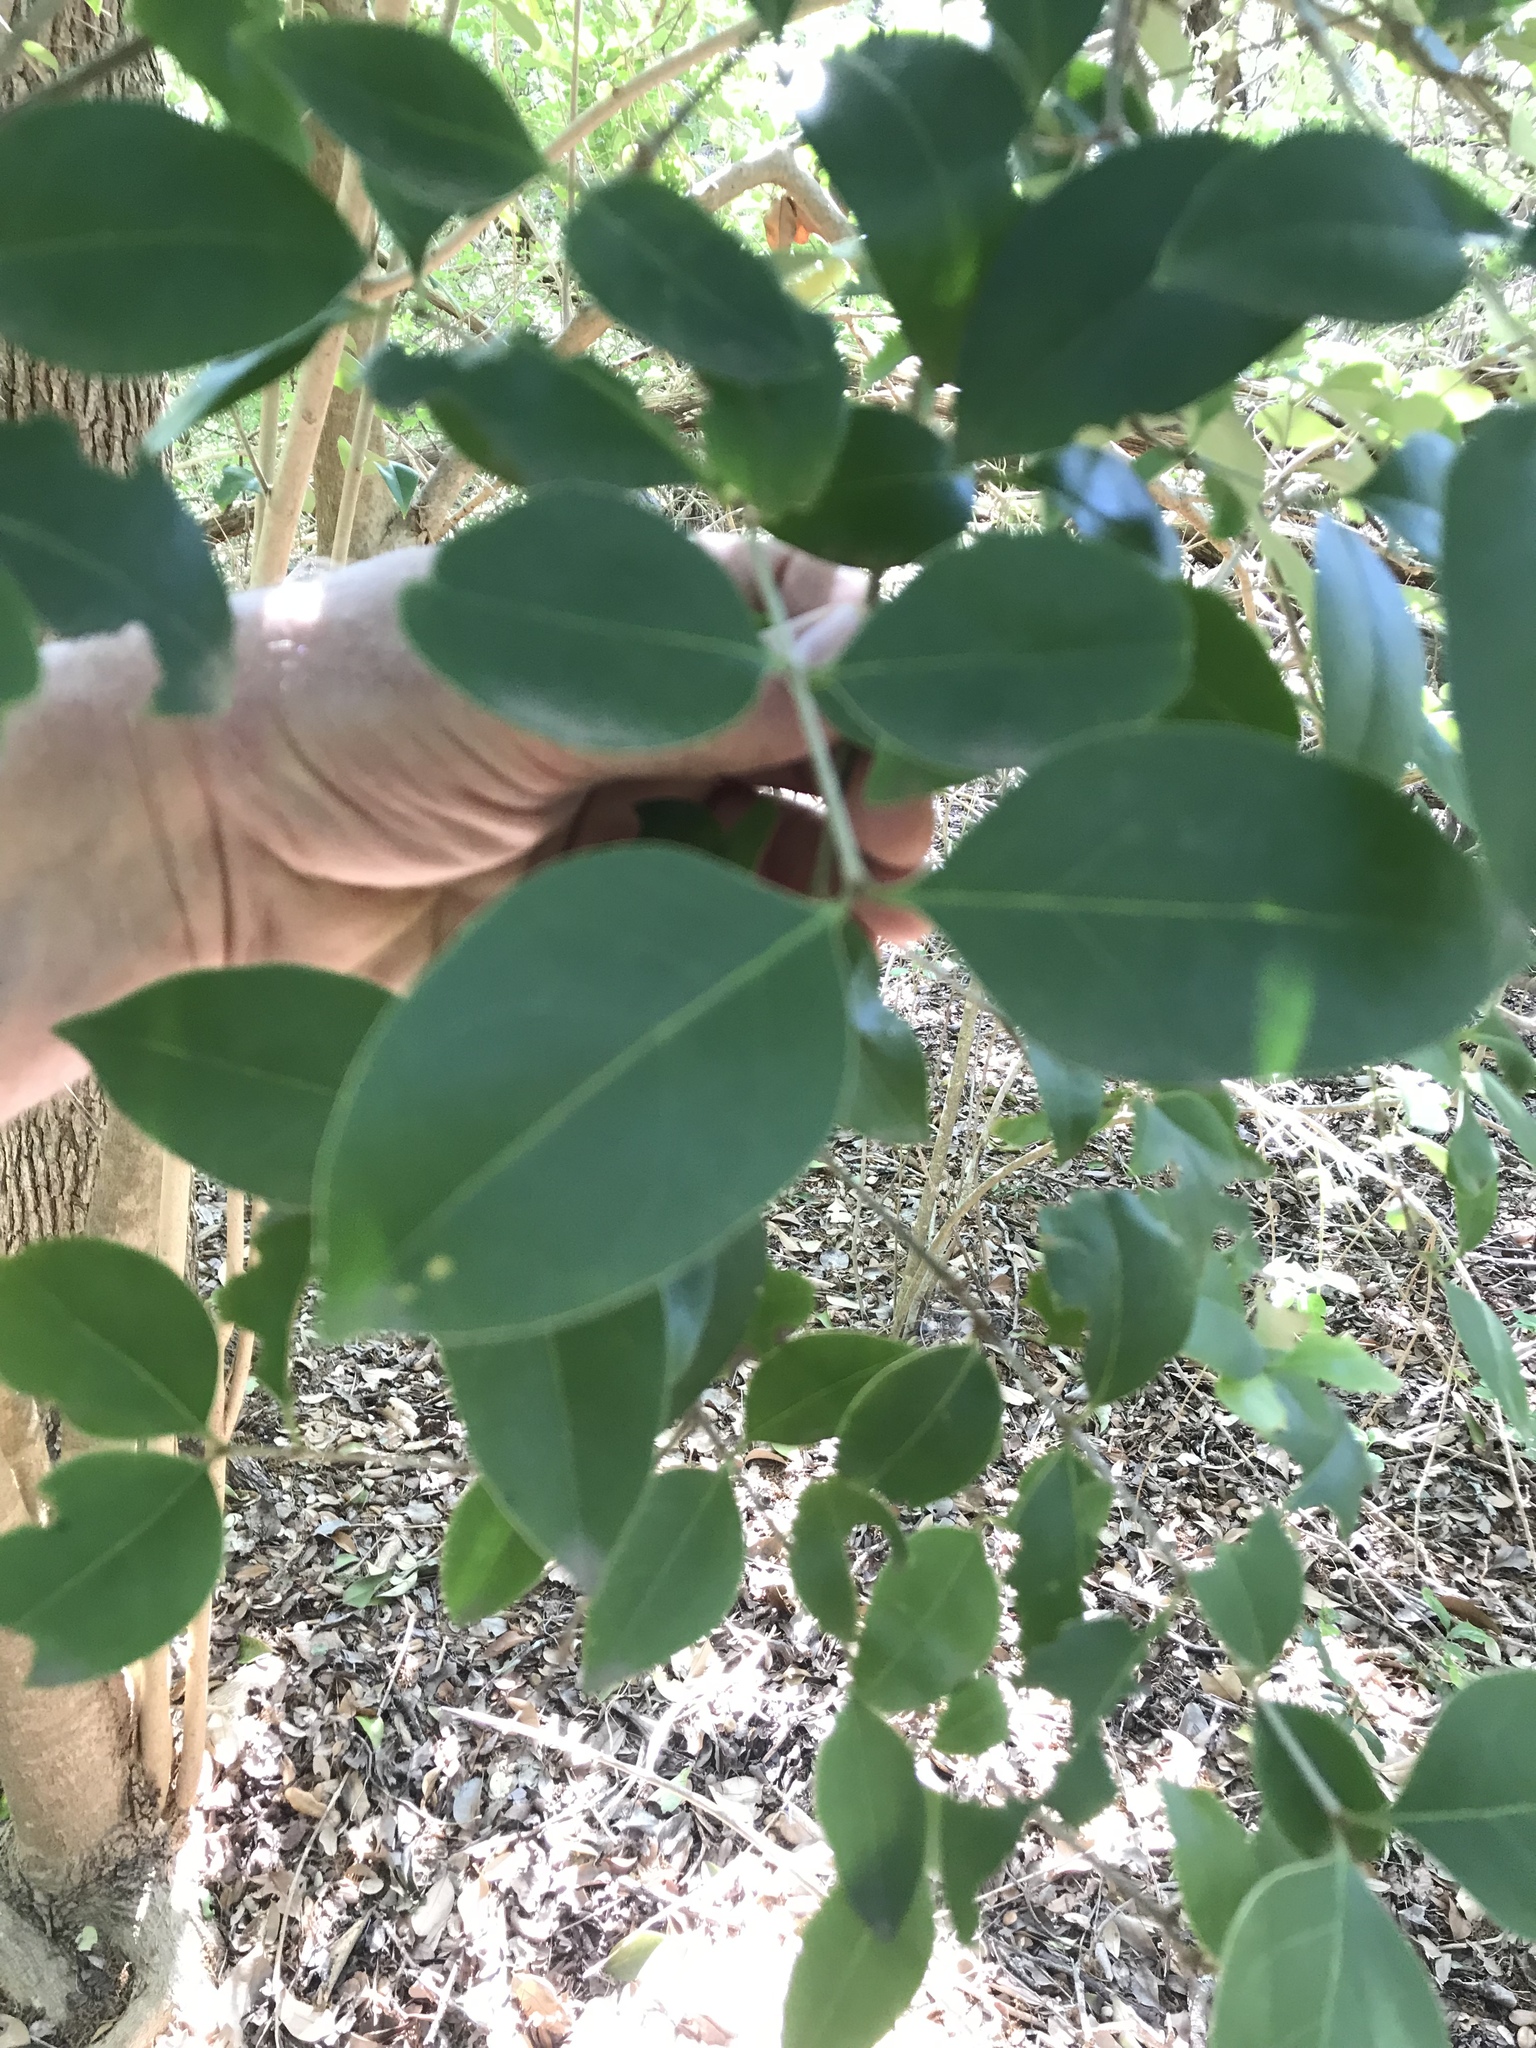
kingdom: Plantae
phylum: Tracheophyta
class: Magnoliopsida
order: Lamiales
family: Oleaceae
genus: Ligustrum
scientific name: Ligustrum lucidum
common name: Glossy privet
